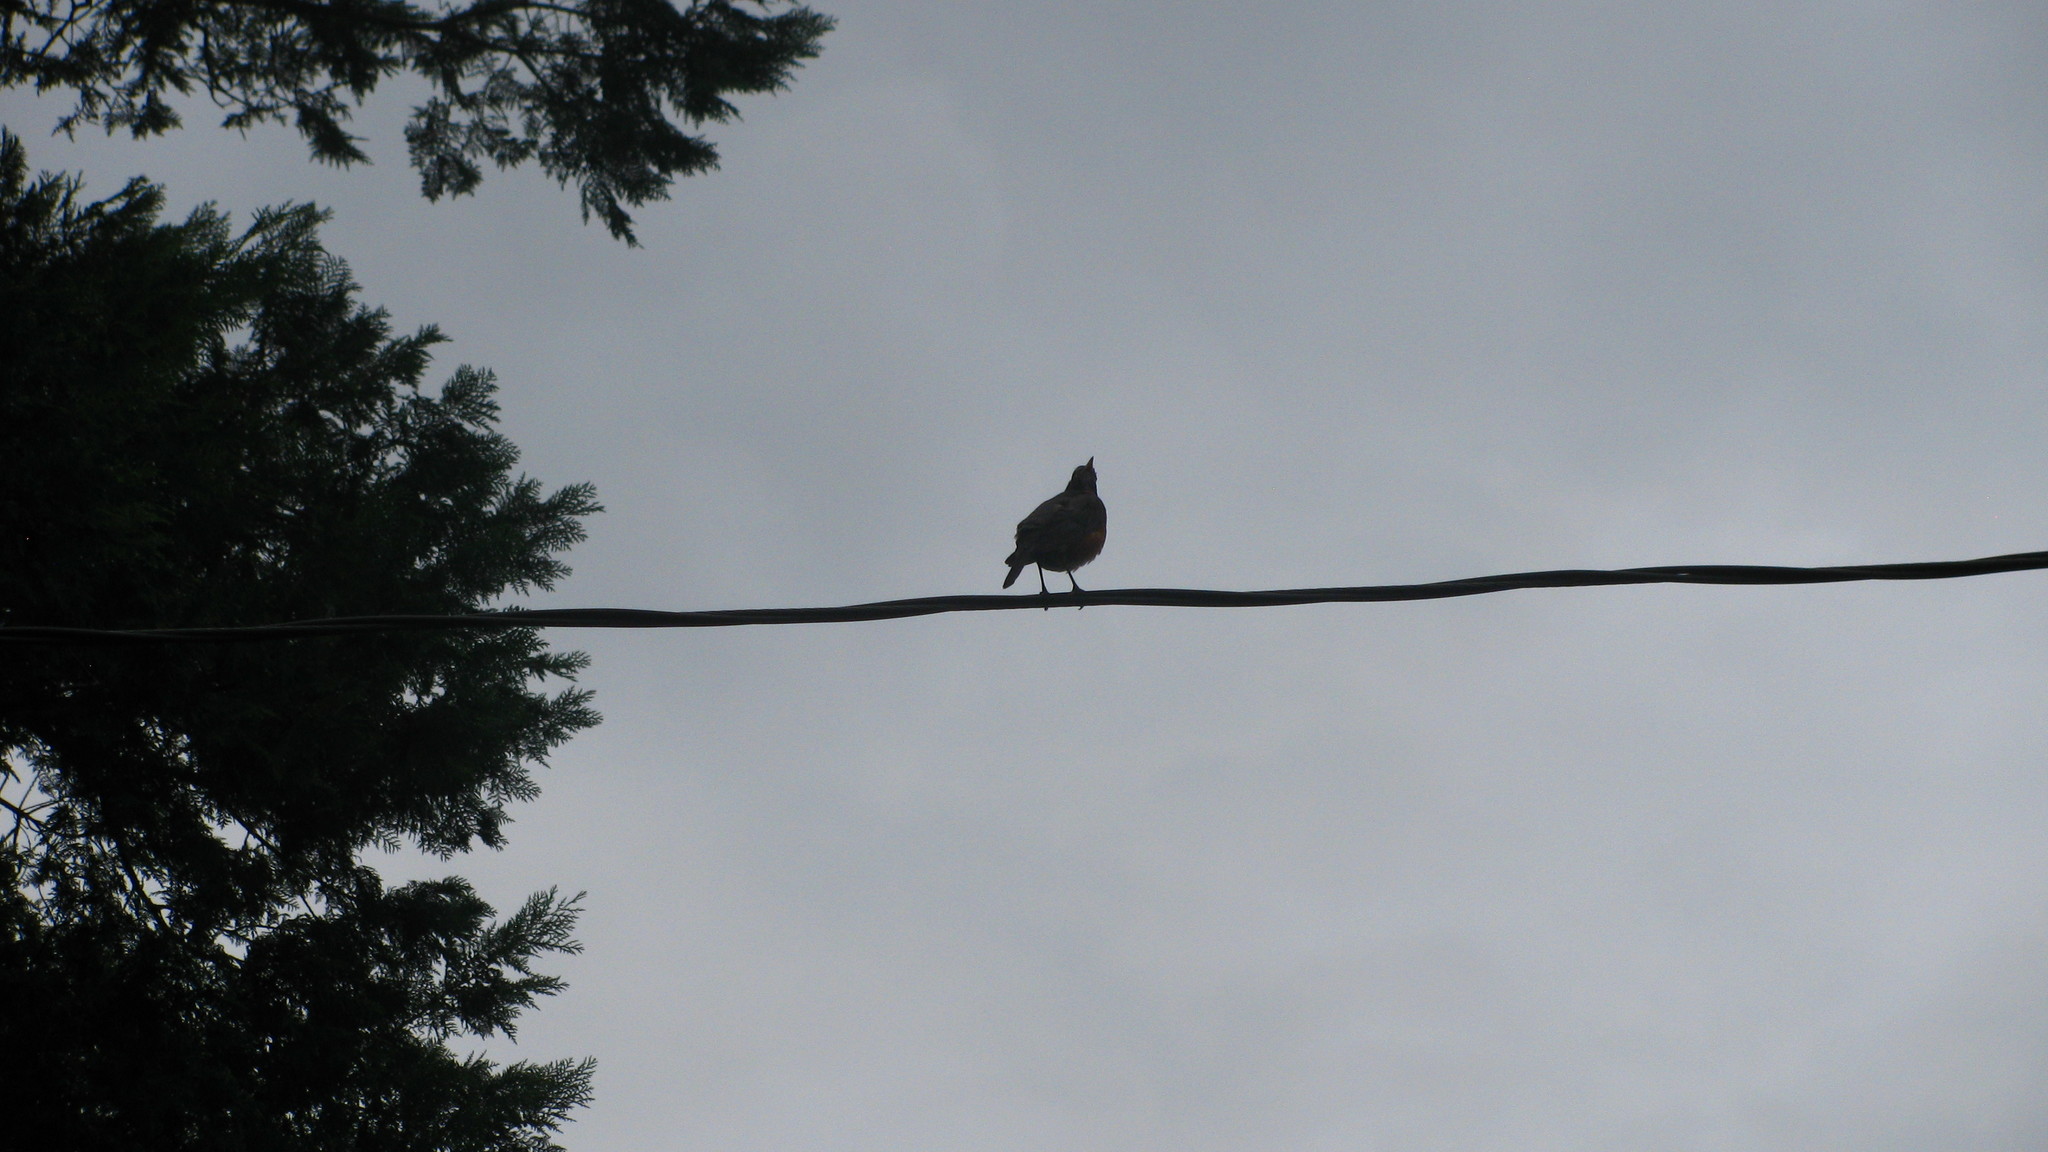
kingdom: Animalia
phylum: Chordata
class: Aves
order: Passeriformes
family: Turdidae
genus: Turdus
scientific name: Turdus migratorius
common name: American robin
